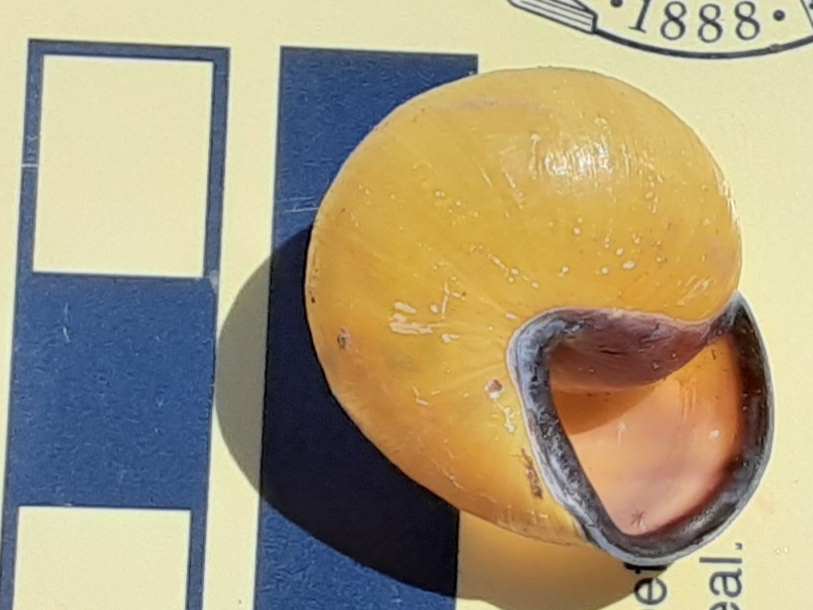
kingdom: Animalia
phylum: Mollusca
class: Gastropoda
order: Stylommatophora
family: Helicidae
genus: Cepaea
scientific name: Cepaea nemoralis
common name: Grovesnail
